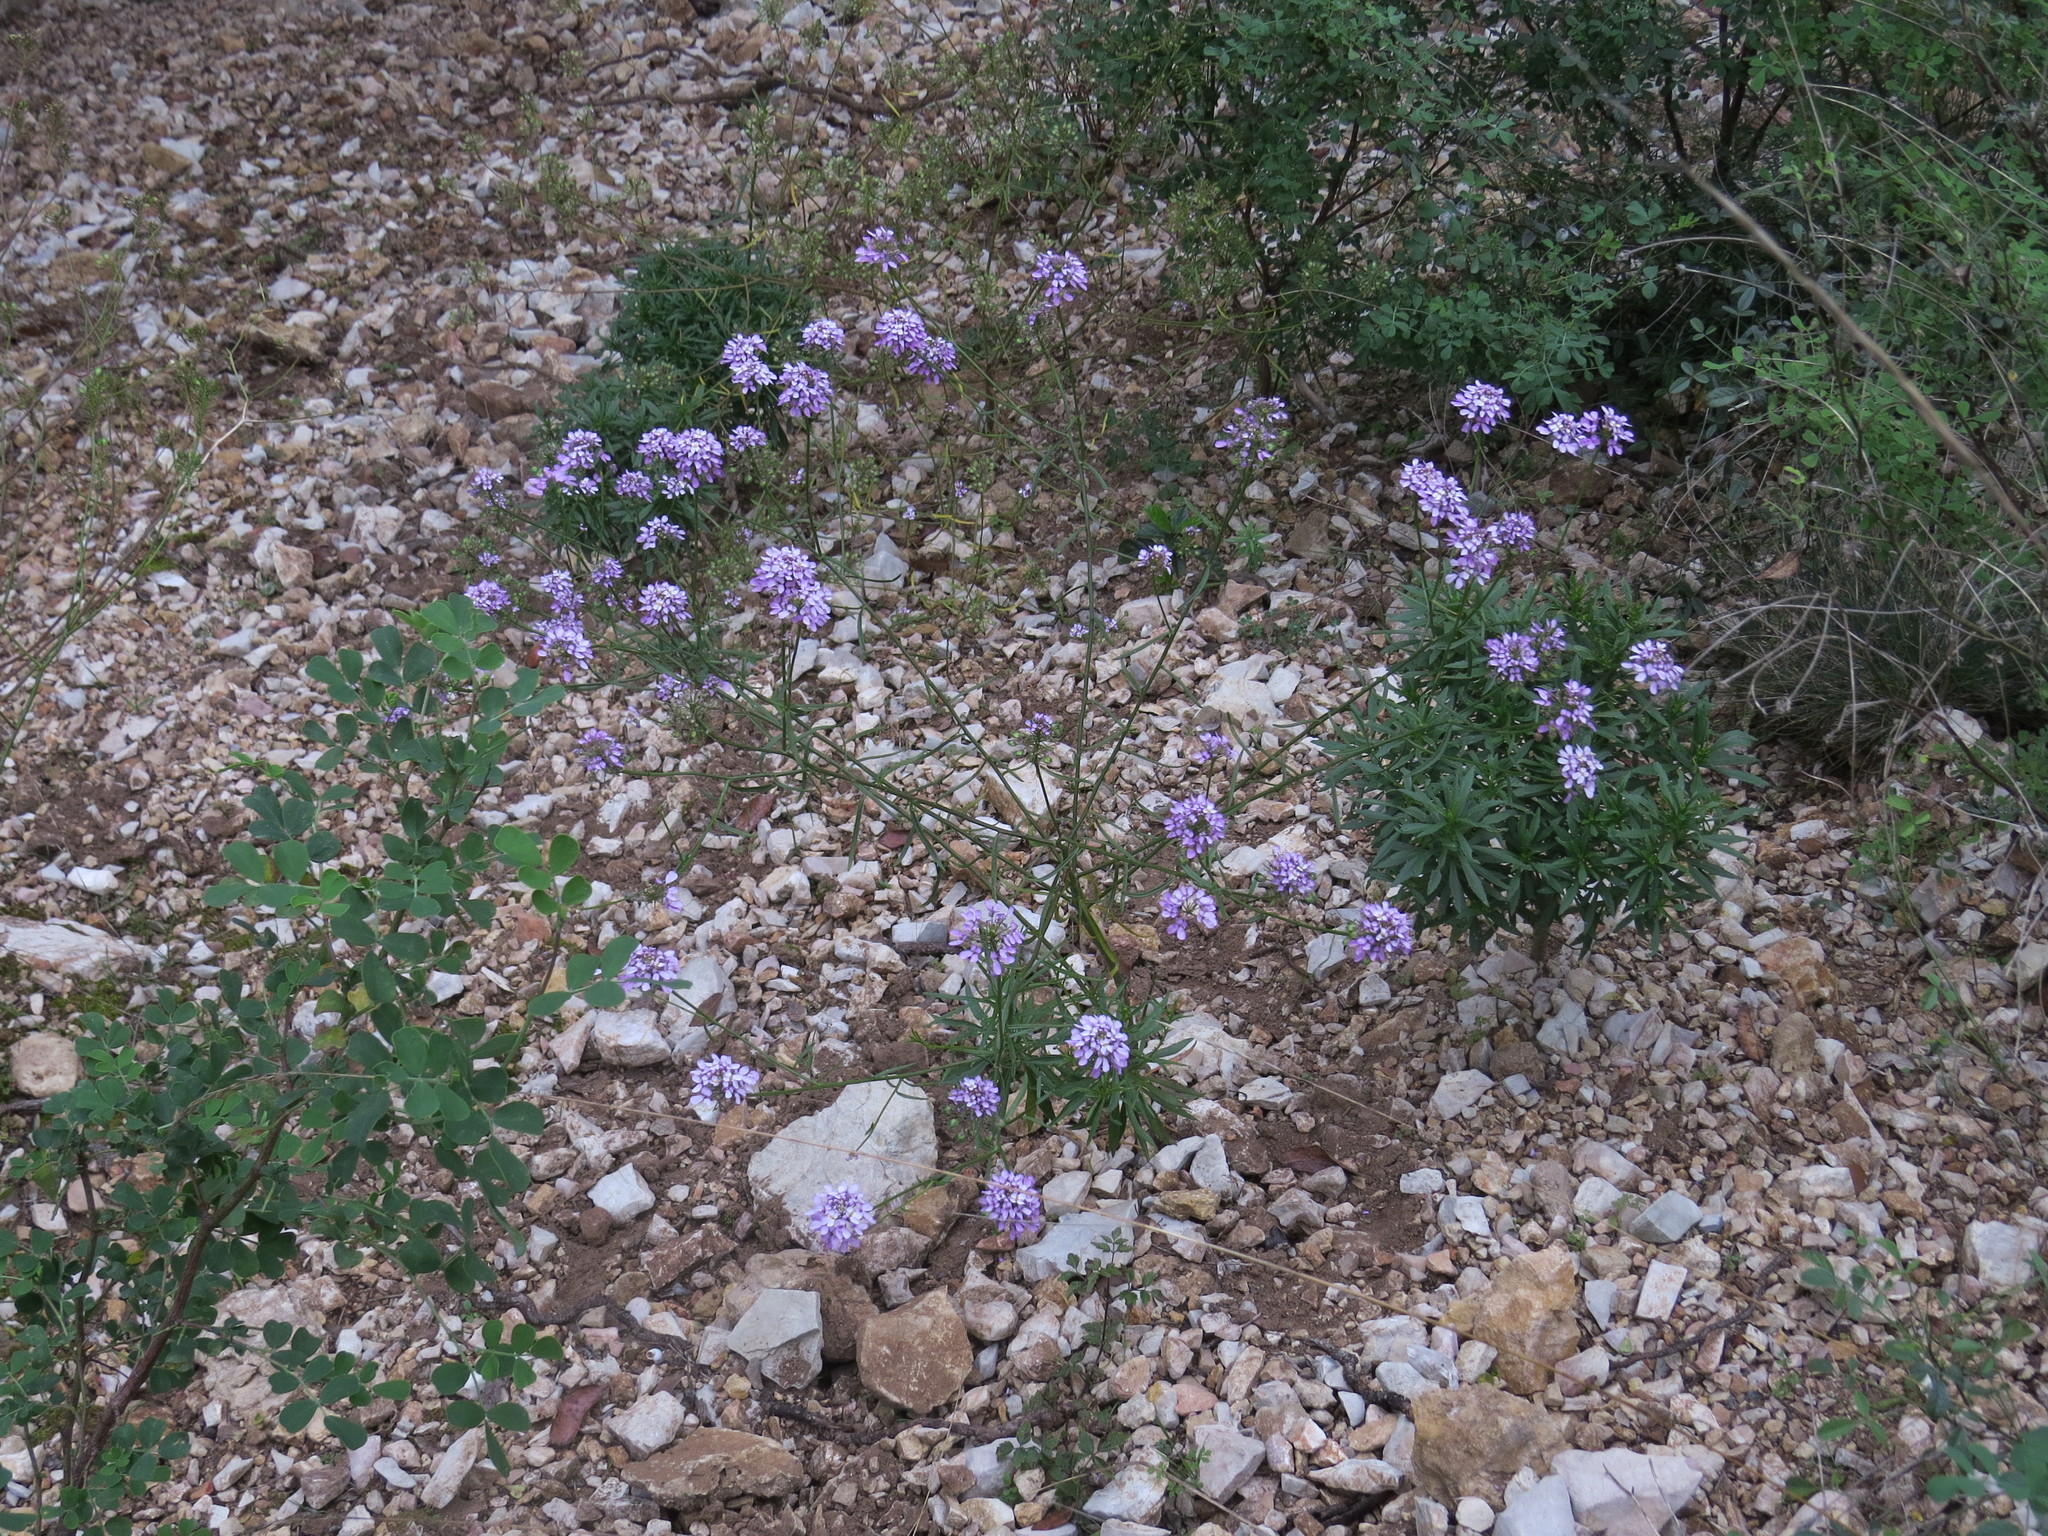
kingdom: Plantae
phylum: Tracheophyta
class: Magnoliopsida
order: Brassicales
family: Brassicaceae
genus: Iberis
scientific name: Iberis linifolia
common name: Candytuft
